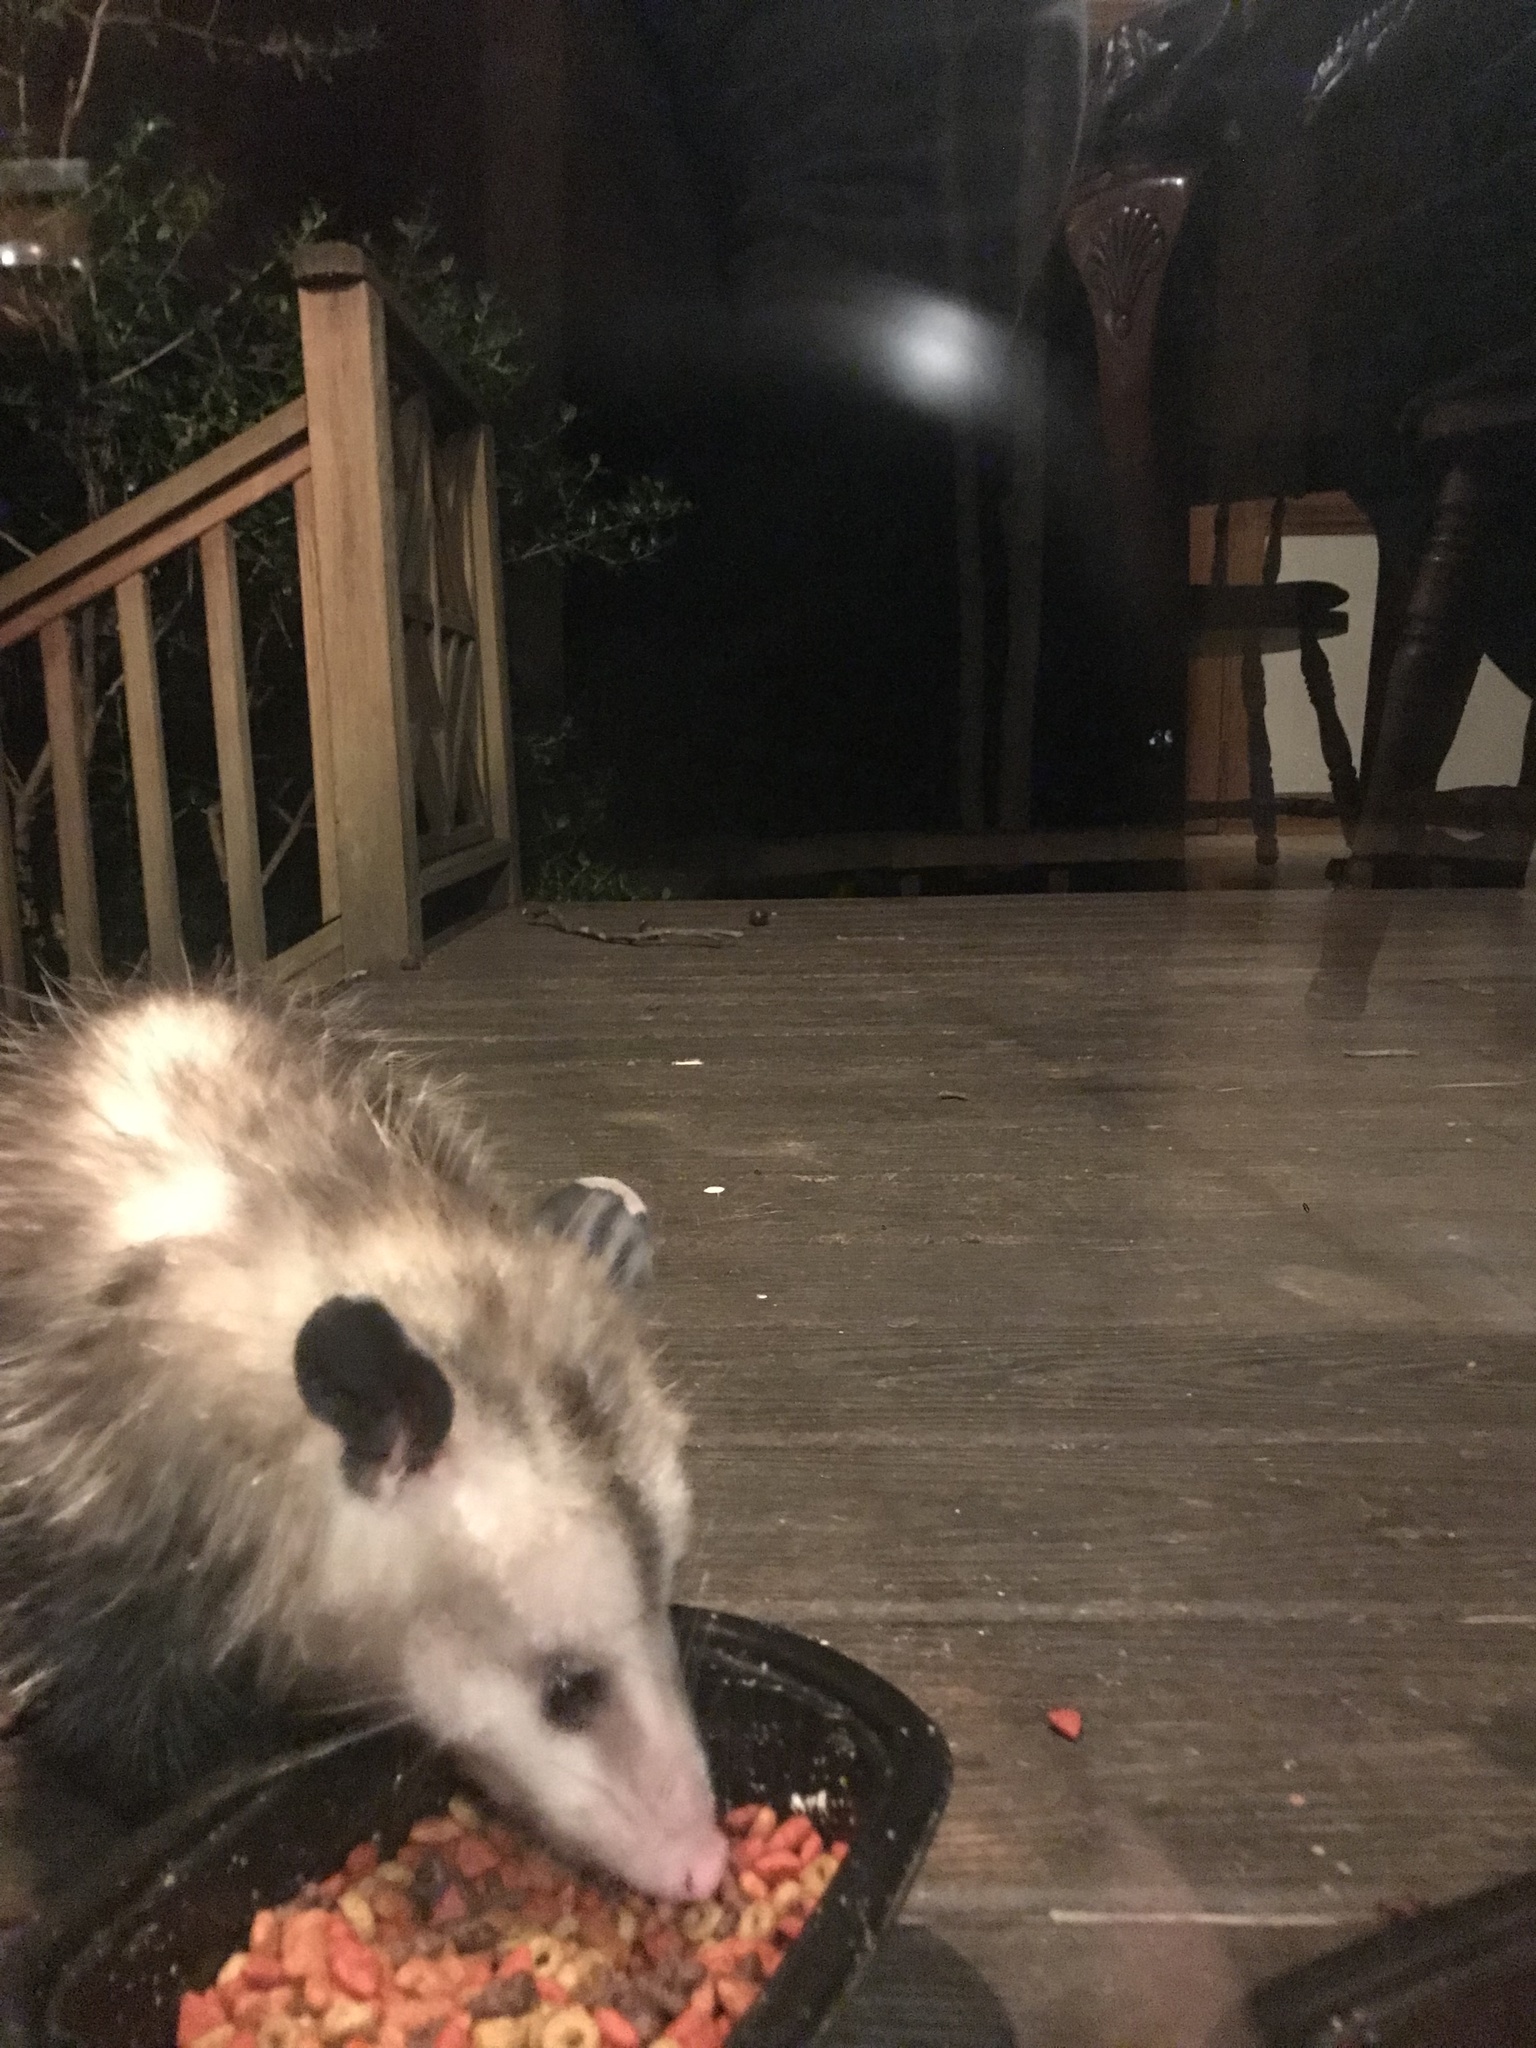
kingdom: Animalia
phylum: Chordata
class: Mammalia
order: Didelphimorphia
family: Didelphidae
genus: Didelphis
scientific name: Didelphis virginiana
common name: Virginia opossum
